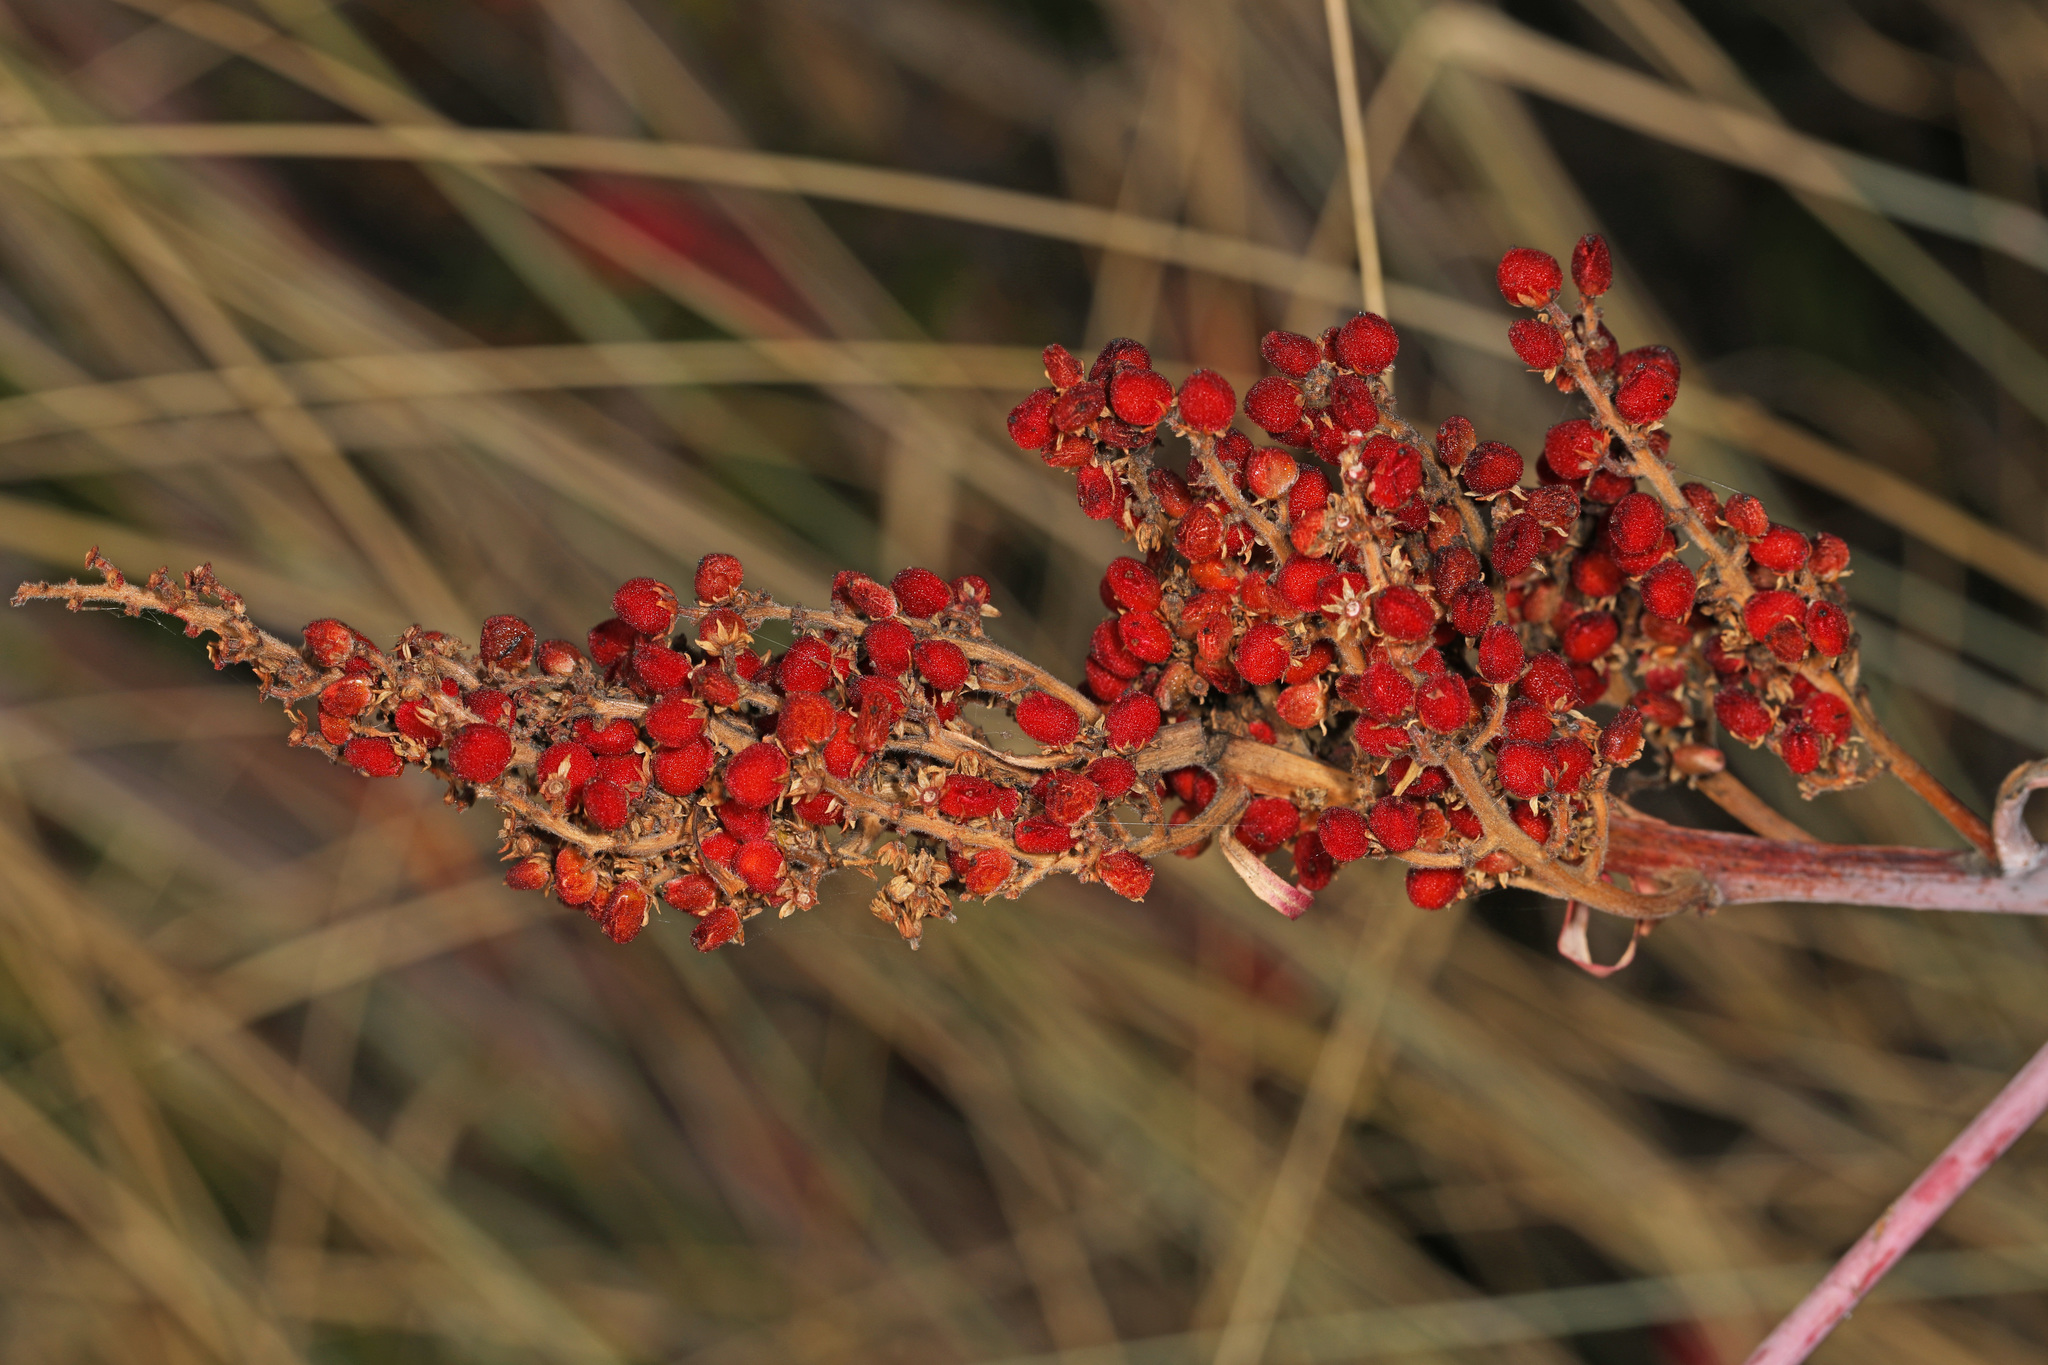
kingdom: Plantae
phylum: Tracheophyta
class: Magnoliopsida
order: Sapindales
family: Anacardiaceae
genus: Rhus
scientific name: Rhus glabra
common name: Scarlet sumac
